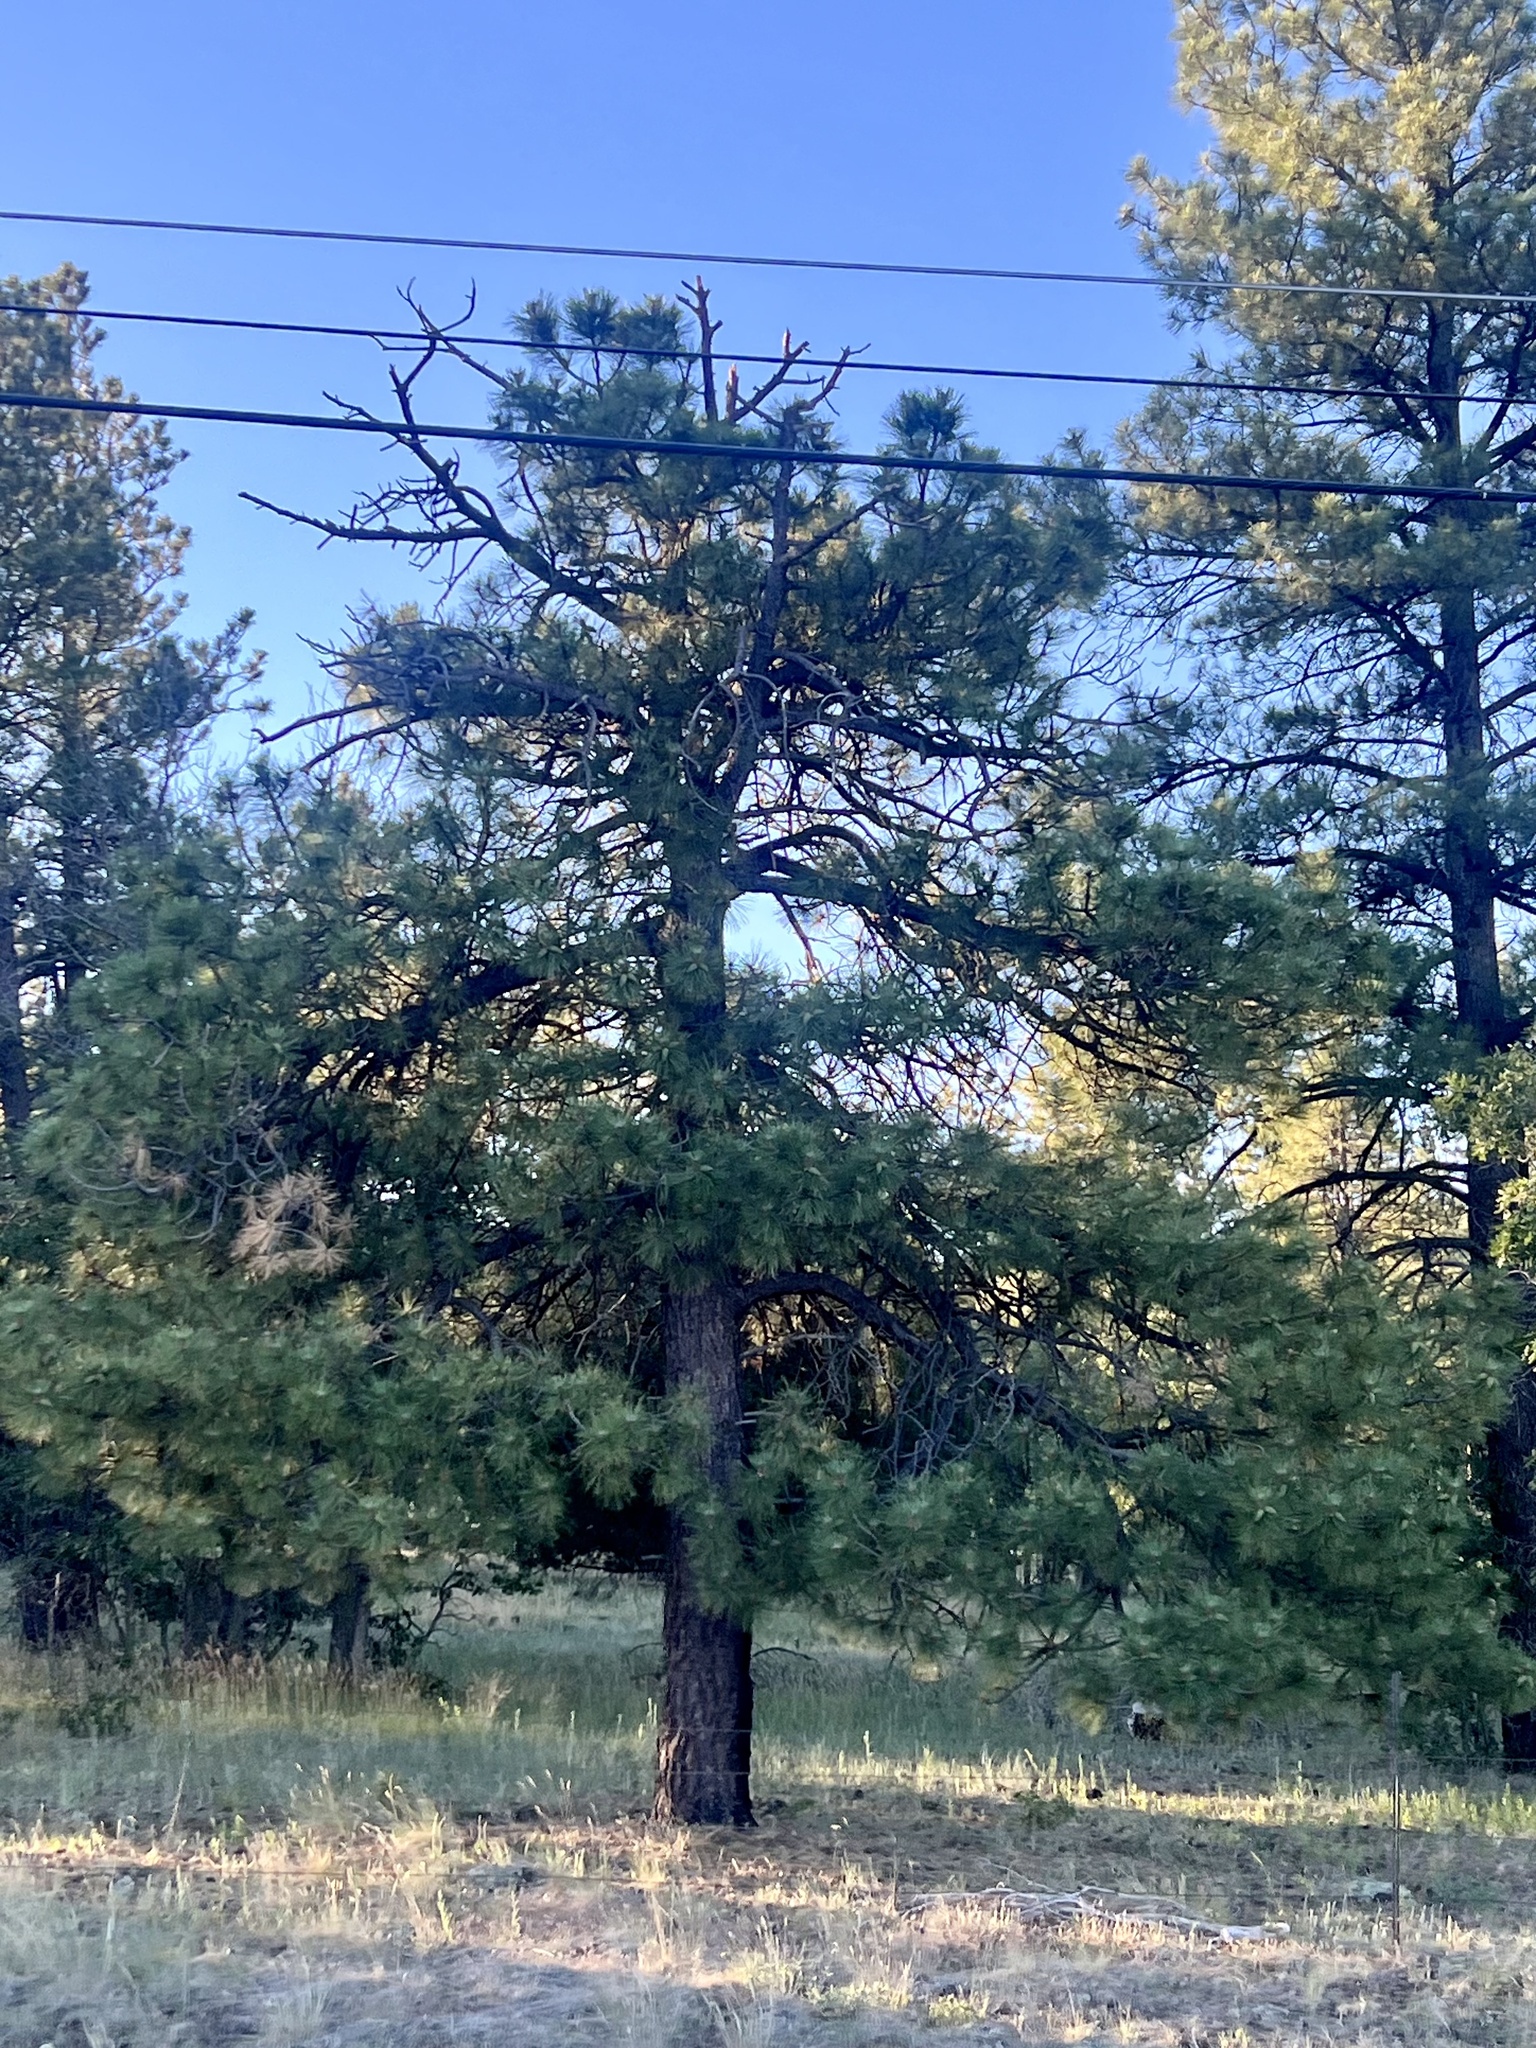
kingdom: Plantae
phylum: Tracheophyta
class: Pinopsida
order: Pinales
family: Pinaceae
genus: Pinus
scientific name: Pinus ponderosa
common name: Western yellow-pine
